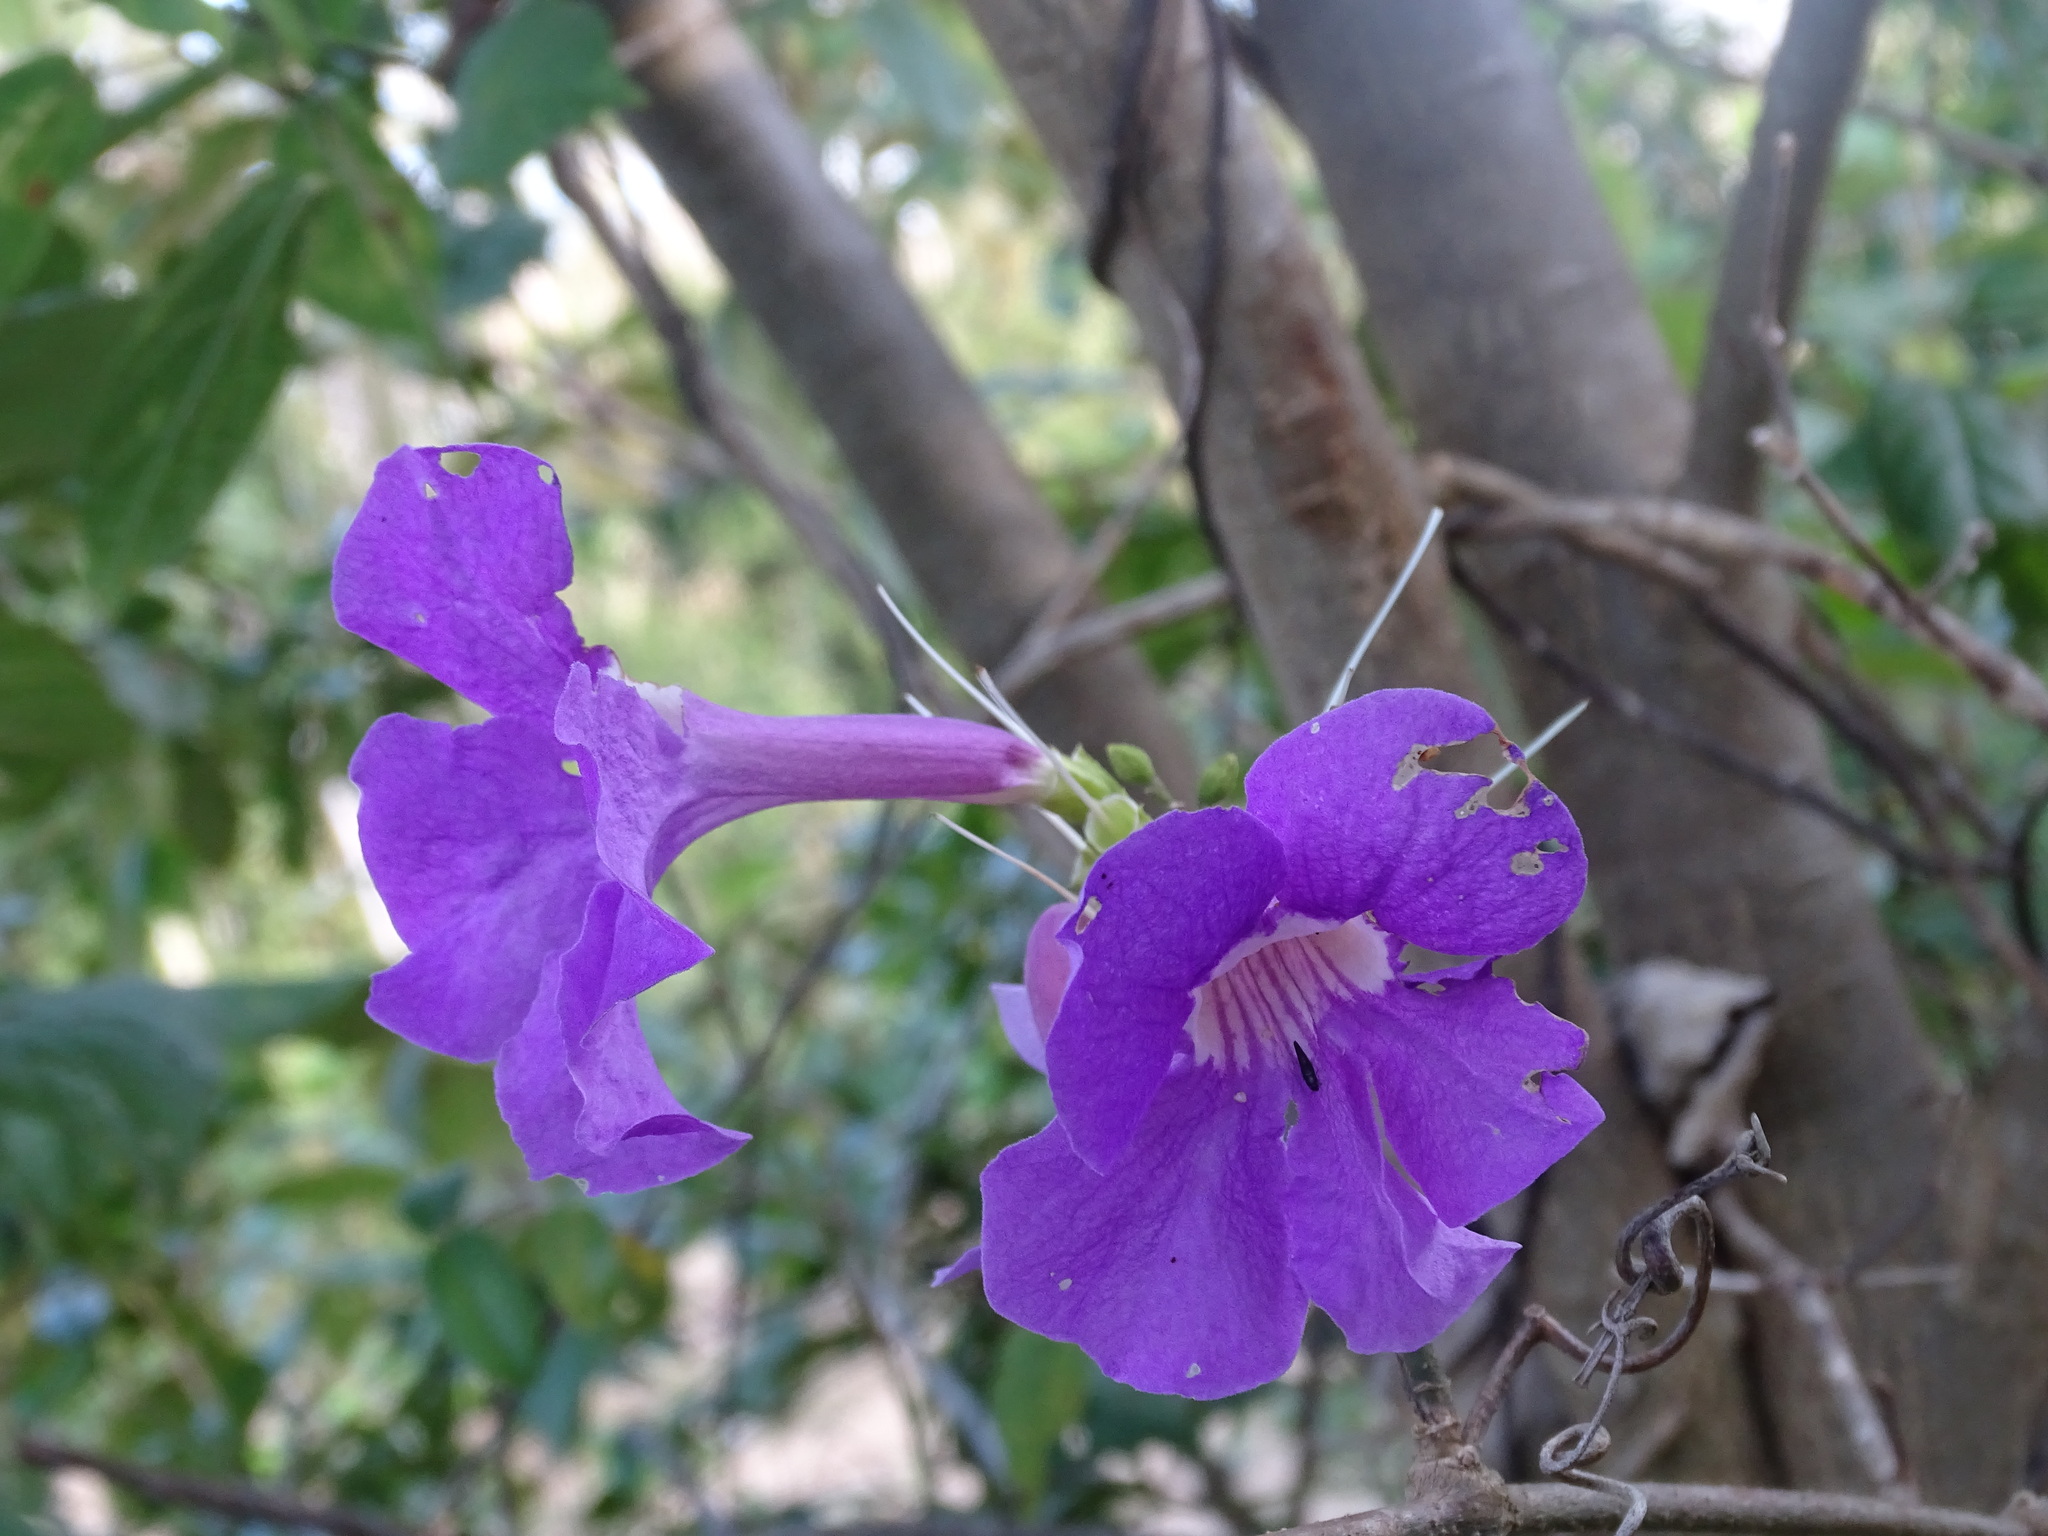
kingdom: Plantae
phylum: Tracheophyta
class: Magnoliopsida
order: Lamiales
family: Bignoniaceae
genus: Bignonia
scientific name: Bignonia neoheterophylla
